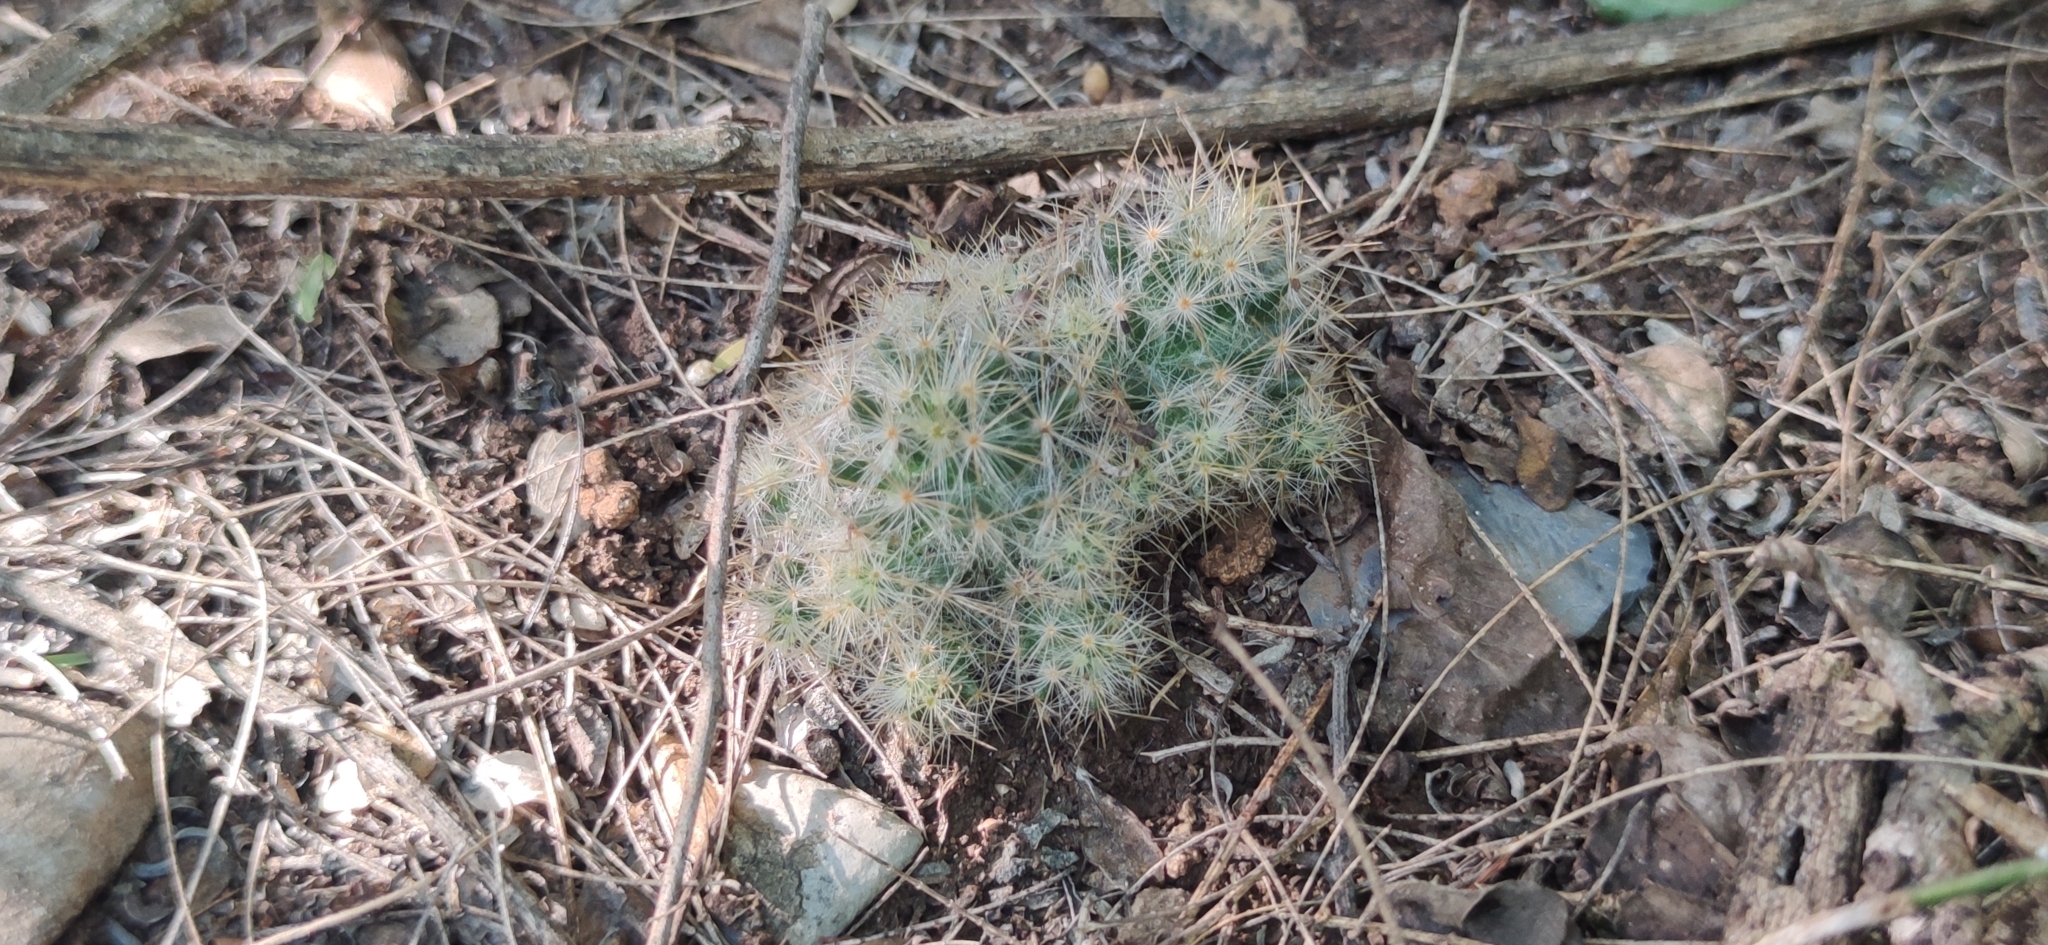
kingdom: Plantae
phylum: Tracheophyta
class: Magnoliopsida
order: Caryophyllales
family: Cactaceae
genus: Mammillaria
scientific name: Mammillaria prolifera
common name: Texas nipple cactus
